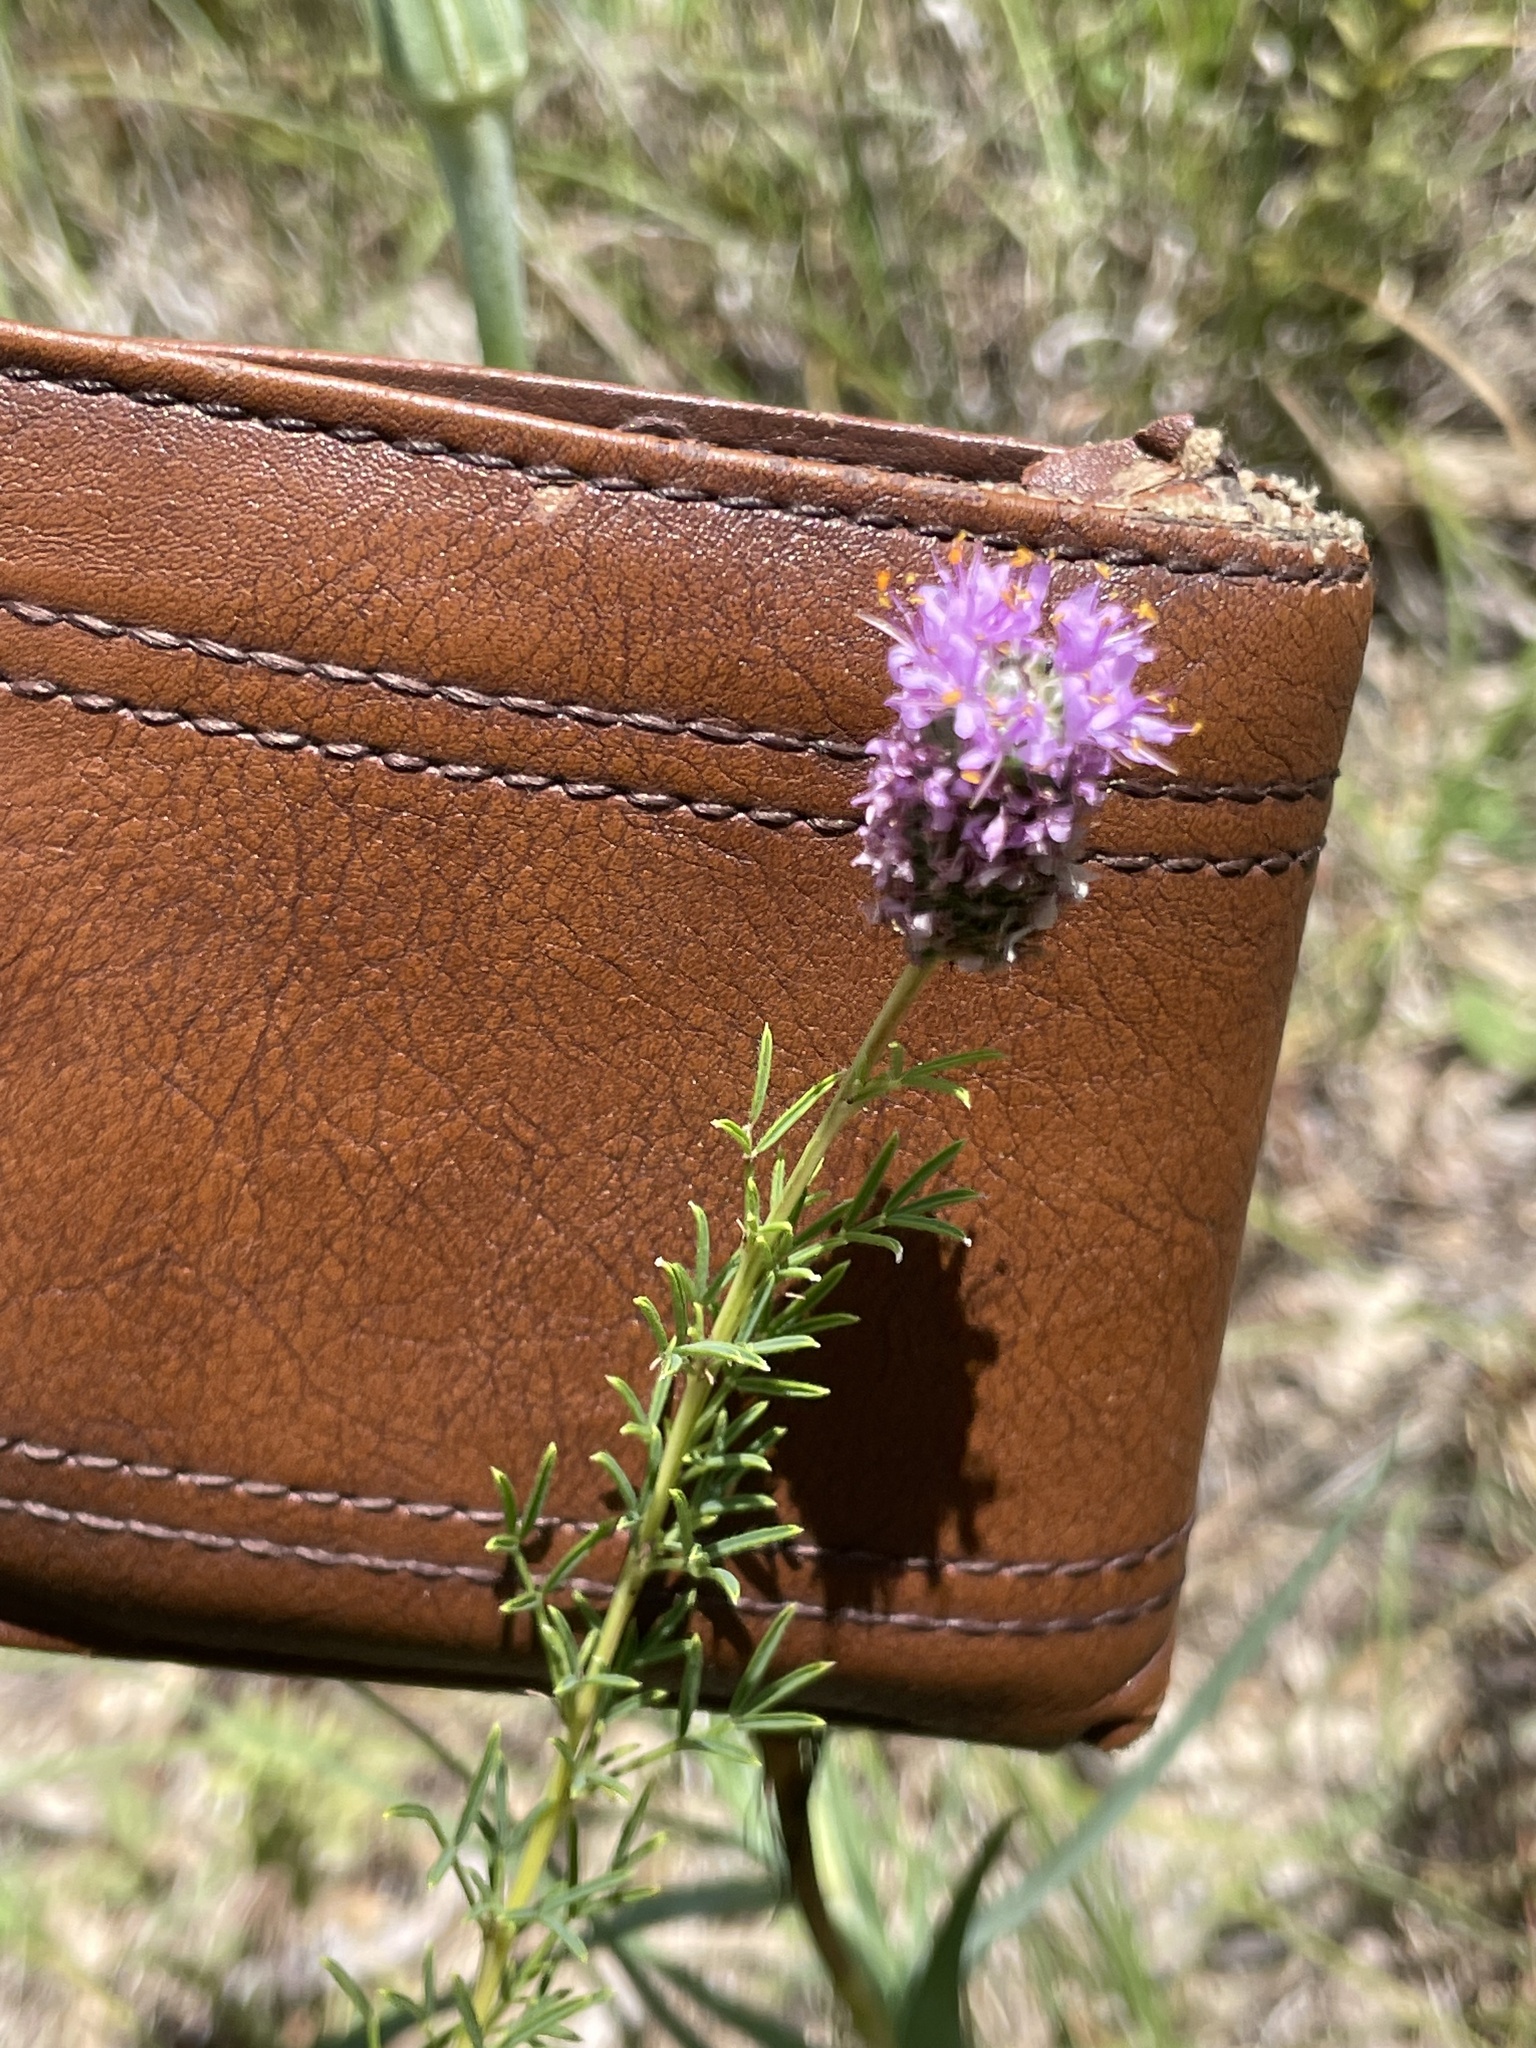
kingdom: Plantae
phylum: Tracheophyta
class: Magnoliopsida
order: Fabales
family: Fabaceae
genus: Dalea
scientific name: Dalea purpurea
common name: Purple prairie-clover
